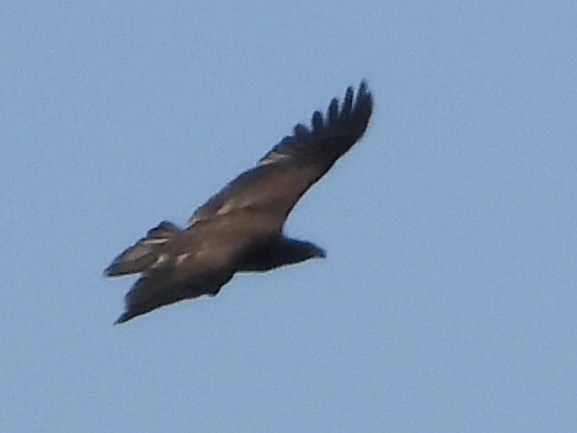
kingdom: Animalia
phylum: Chordata
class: Aves
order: Accipitriformes
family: Accipitridae
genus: Haliaeetus
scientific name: Haliaeetus leucocephalus
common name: Bald eagle
